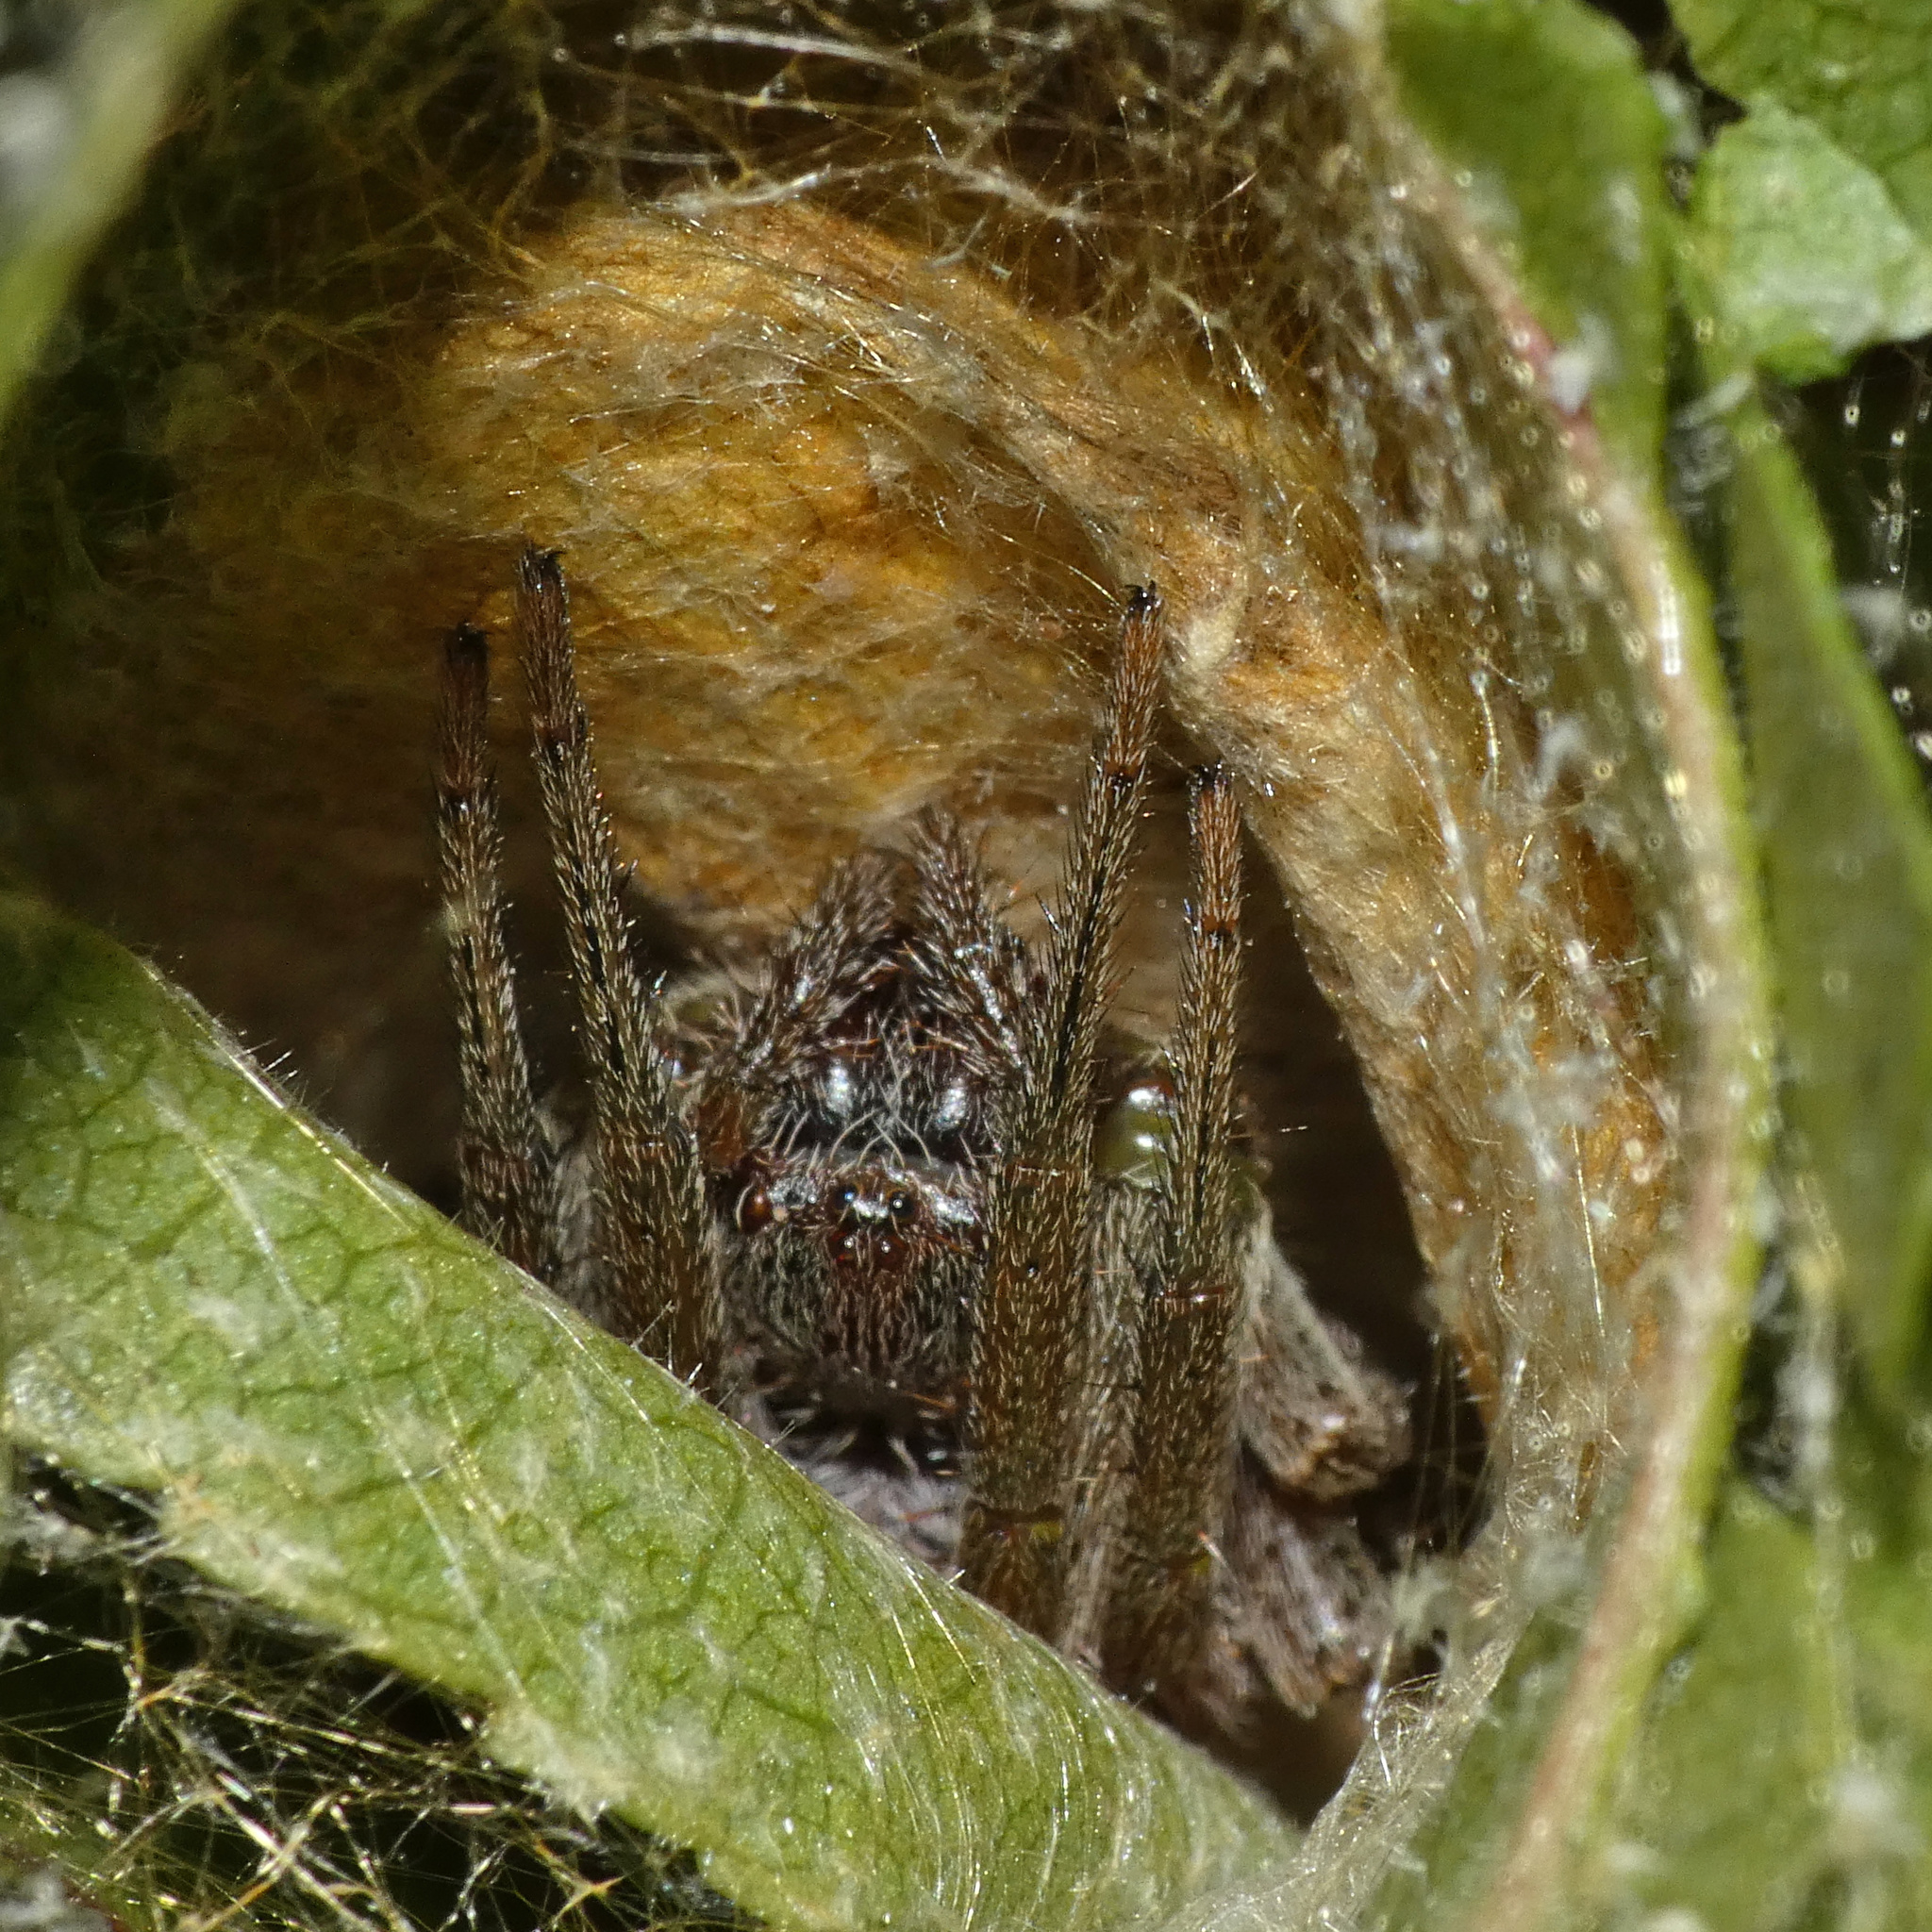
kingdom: Animalia
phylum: Arthropoda
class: Arachnida
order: Araneae
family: Araneidae
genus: Neoscona
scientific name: Neoscona rufipalpis
